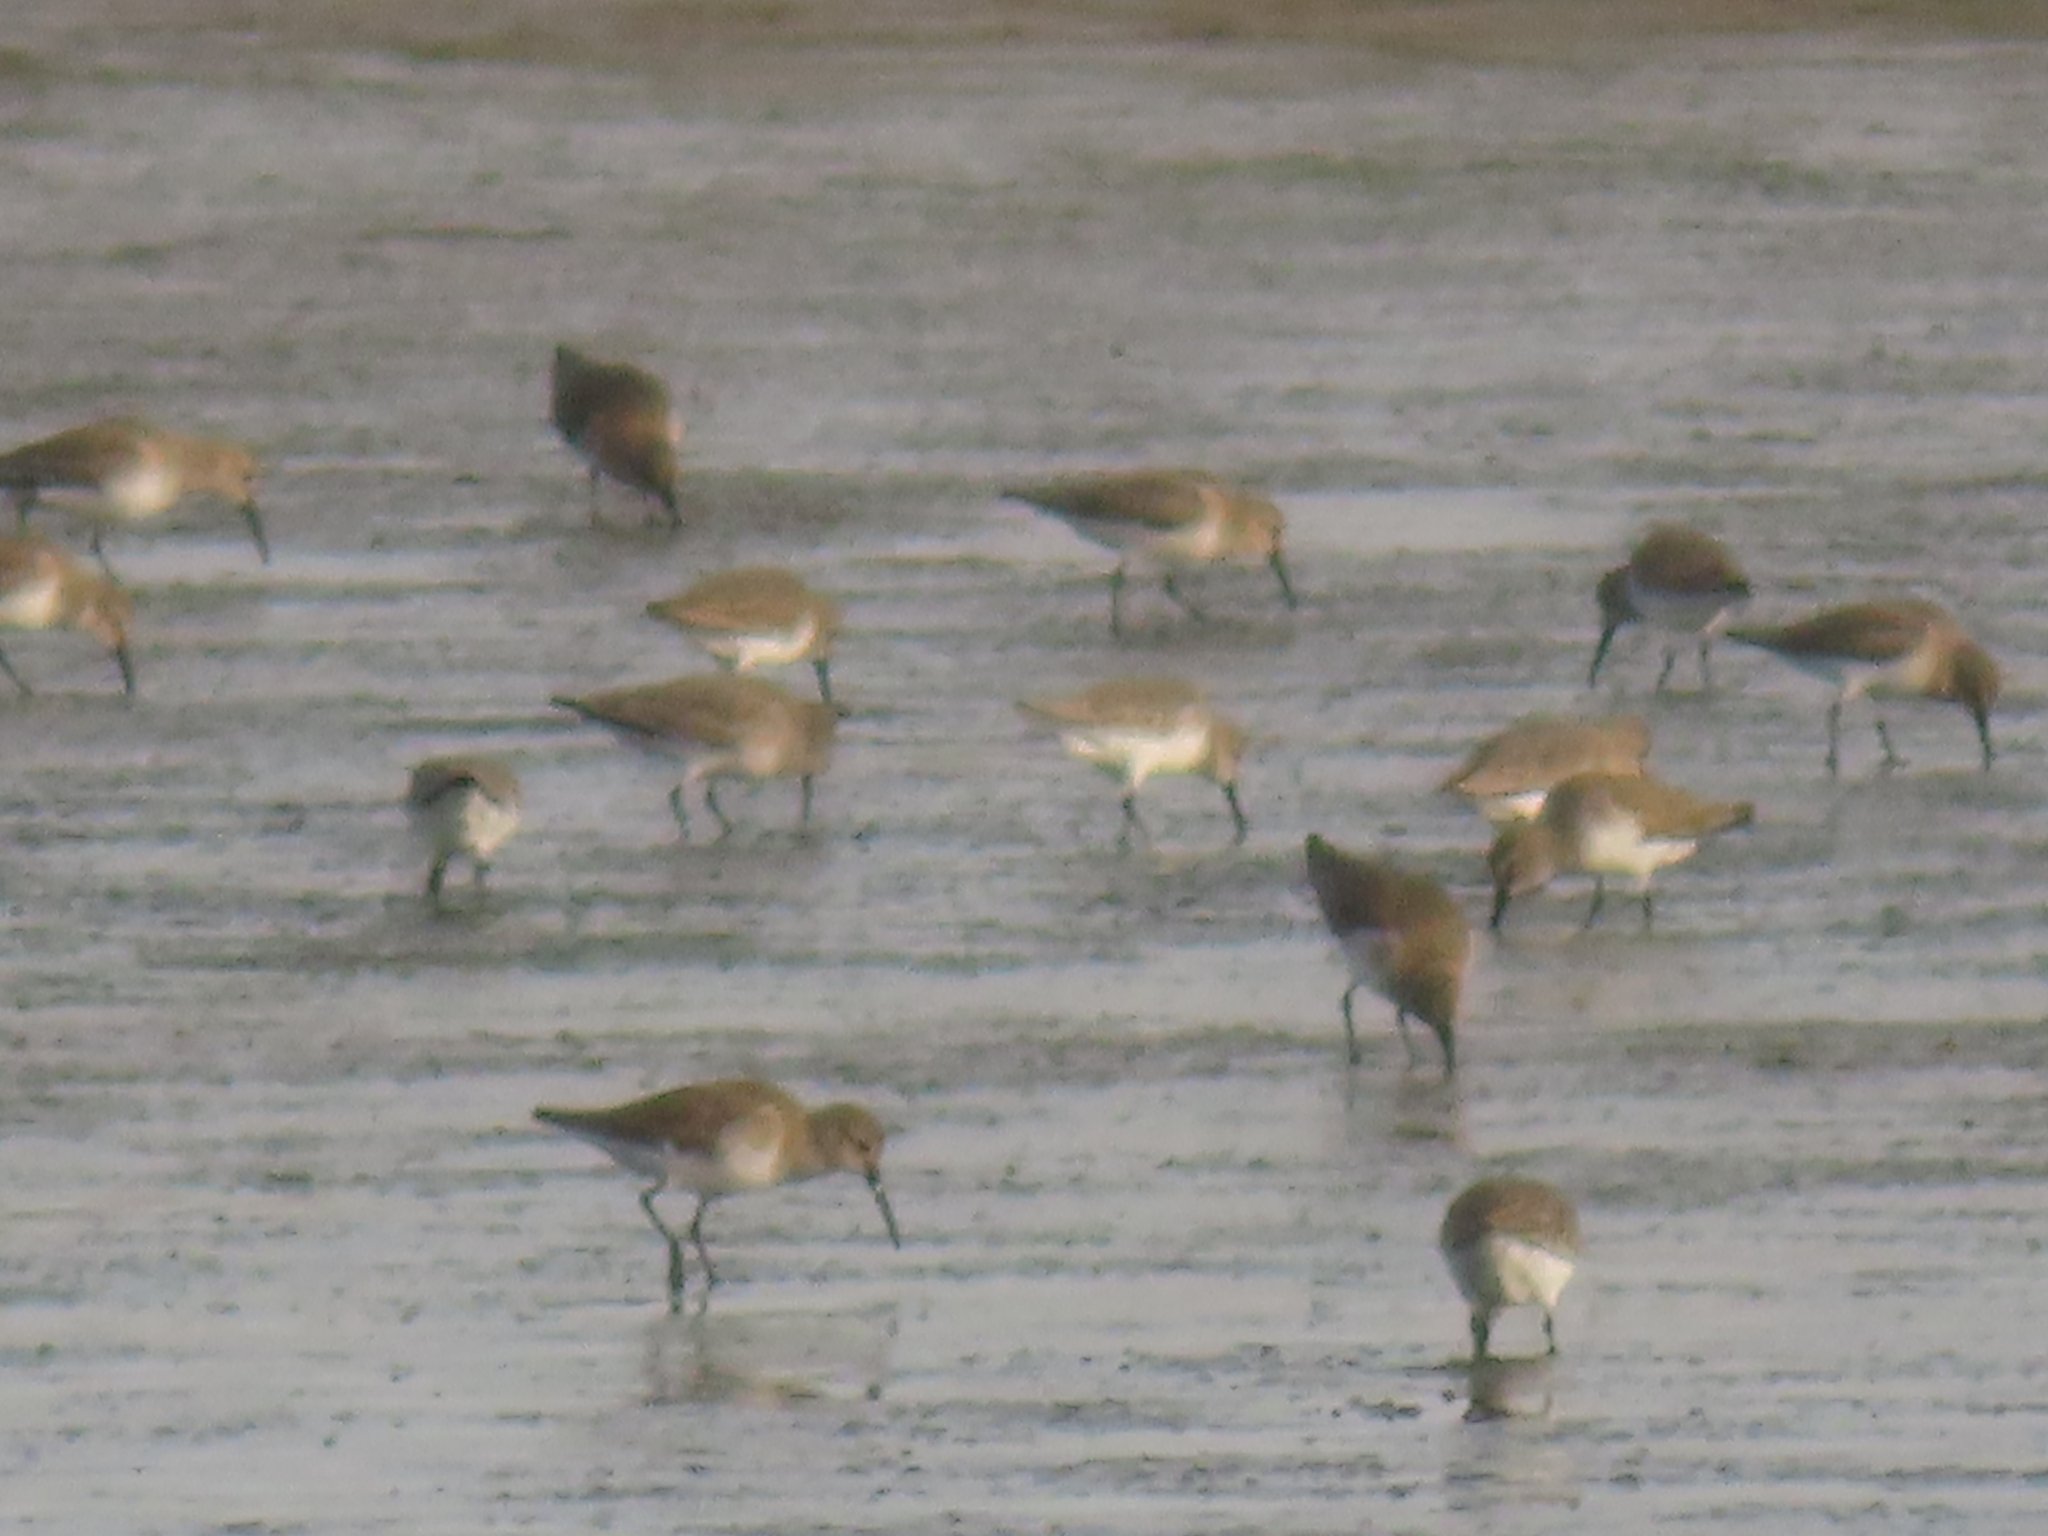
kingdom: Animalia
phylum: Chordata
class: Aves
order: Charadriiformes
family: Scolopacidae
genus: Calidris
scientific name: Calidris alpina
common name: Dunlin
